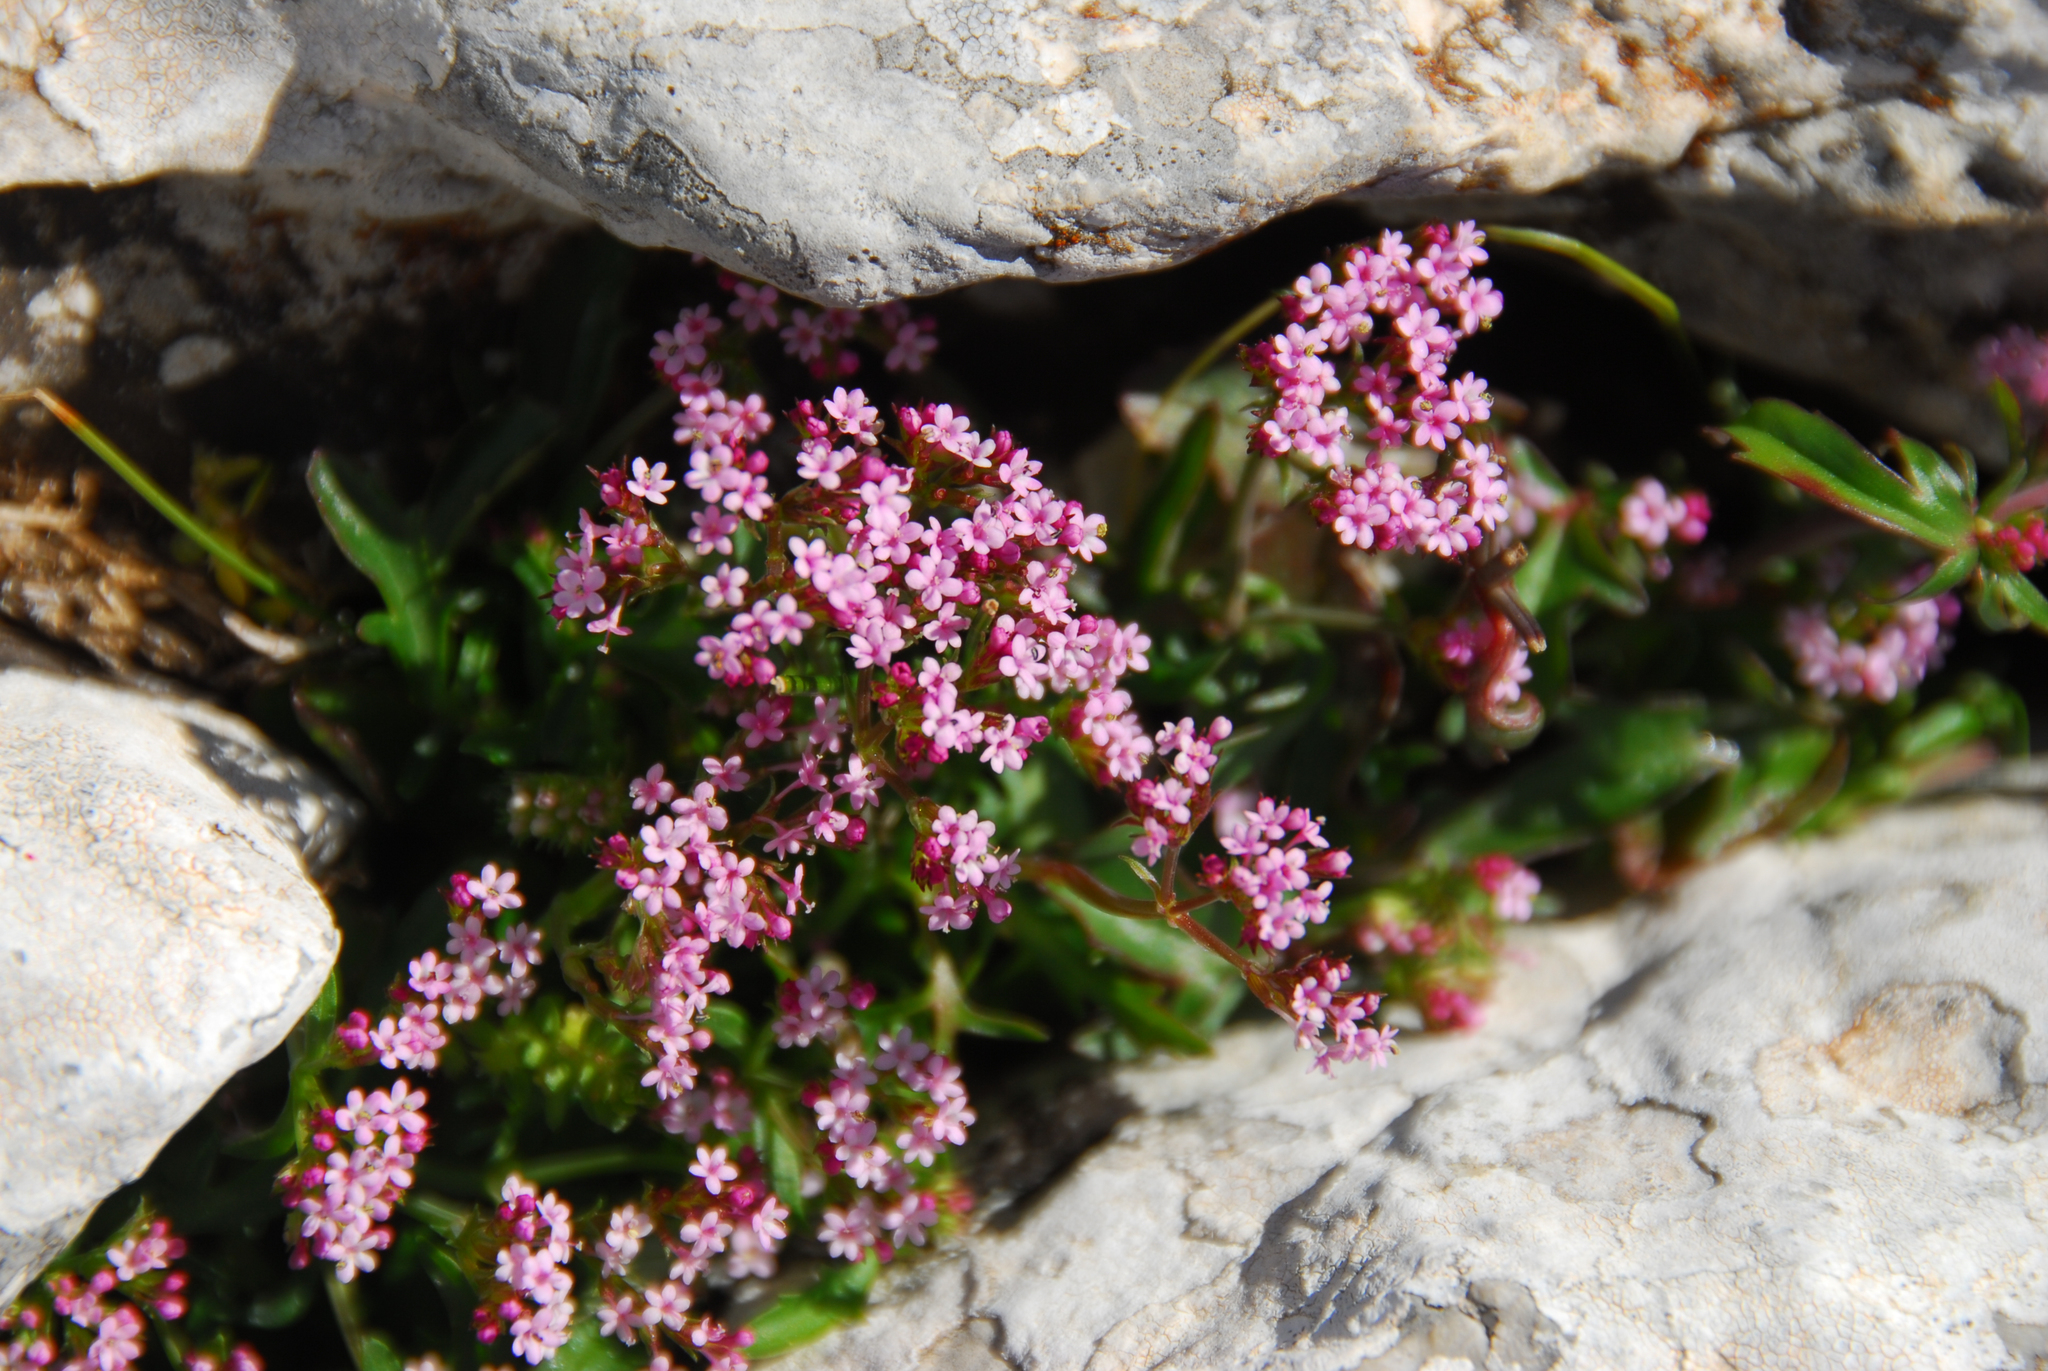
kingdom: Plantae
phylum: Tracheophyta
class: Magnoliopsida
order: Dipsacales
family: Caprifoliaceae
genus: Centranthus
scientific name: Centranthus calcitrapae
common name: Annual valerian
